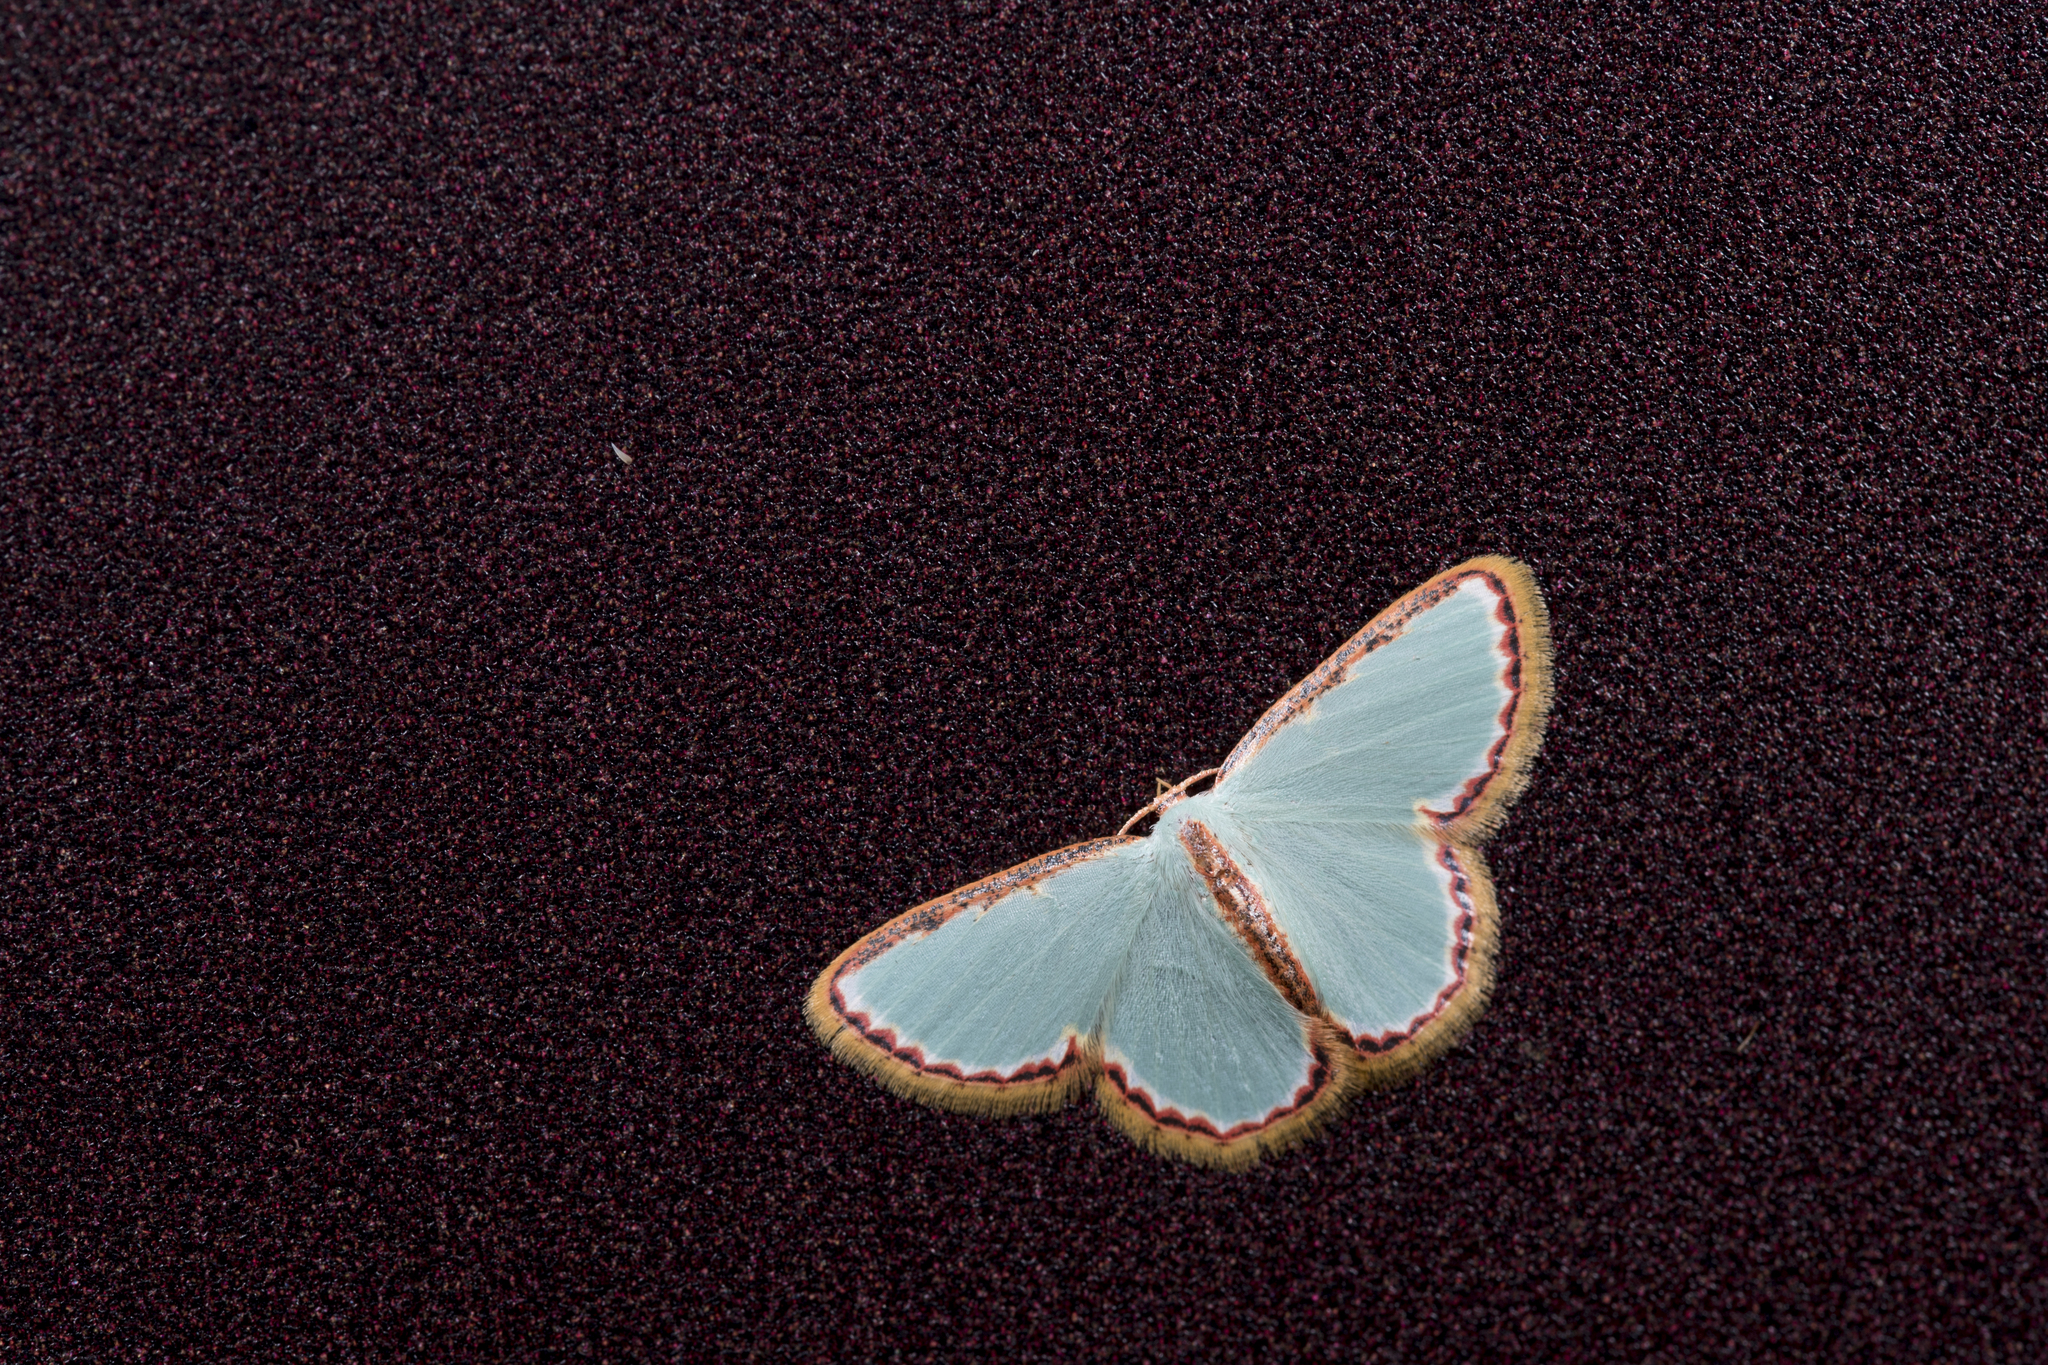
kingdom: Animalia
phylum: Arthropoda
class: Insecta
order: Lepidoptera
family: Geometridae
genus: Comostola
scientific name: Comostola pyrrhogona
